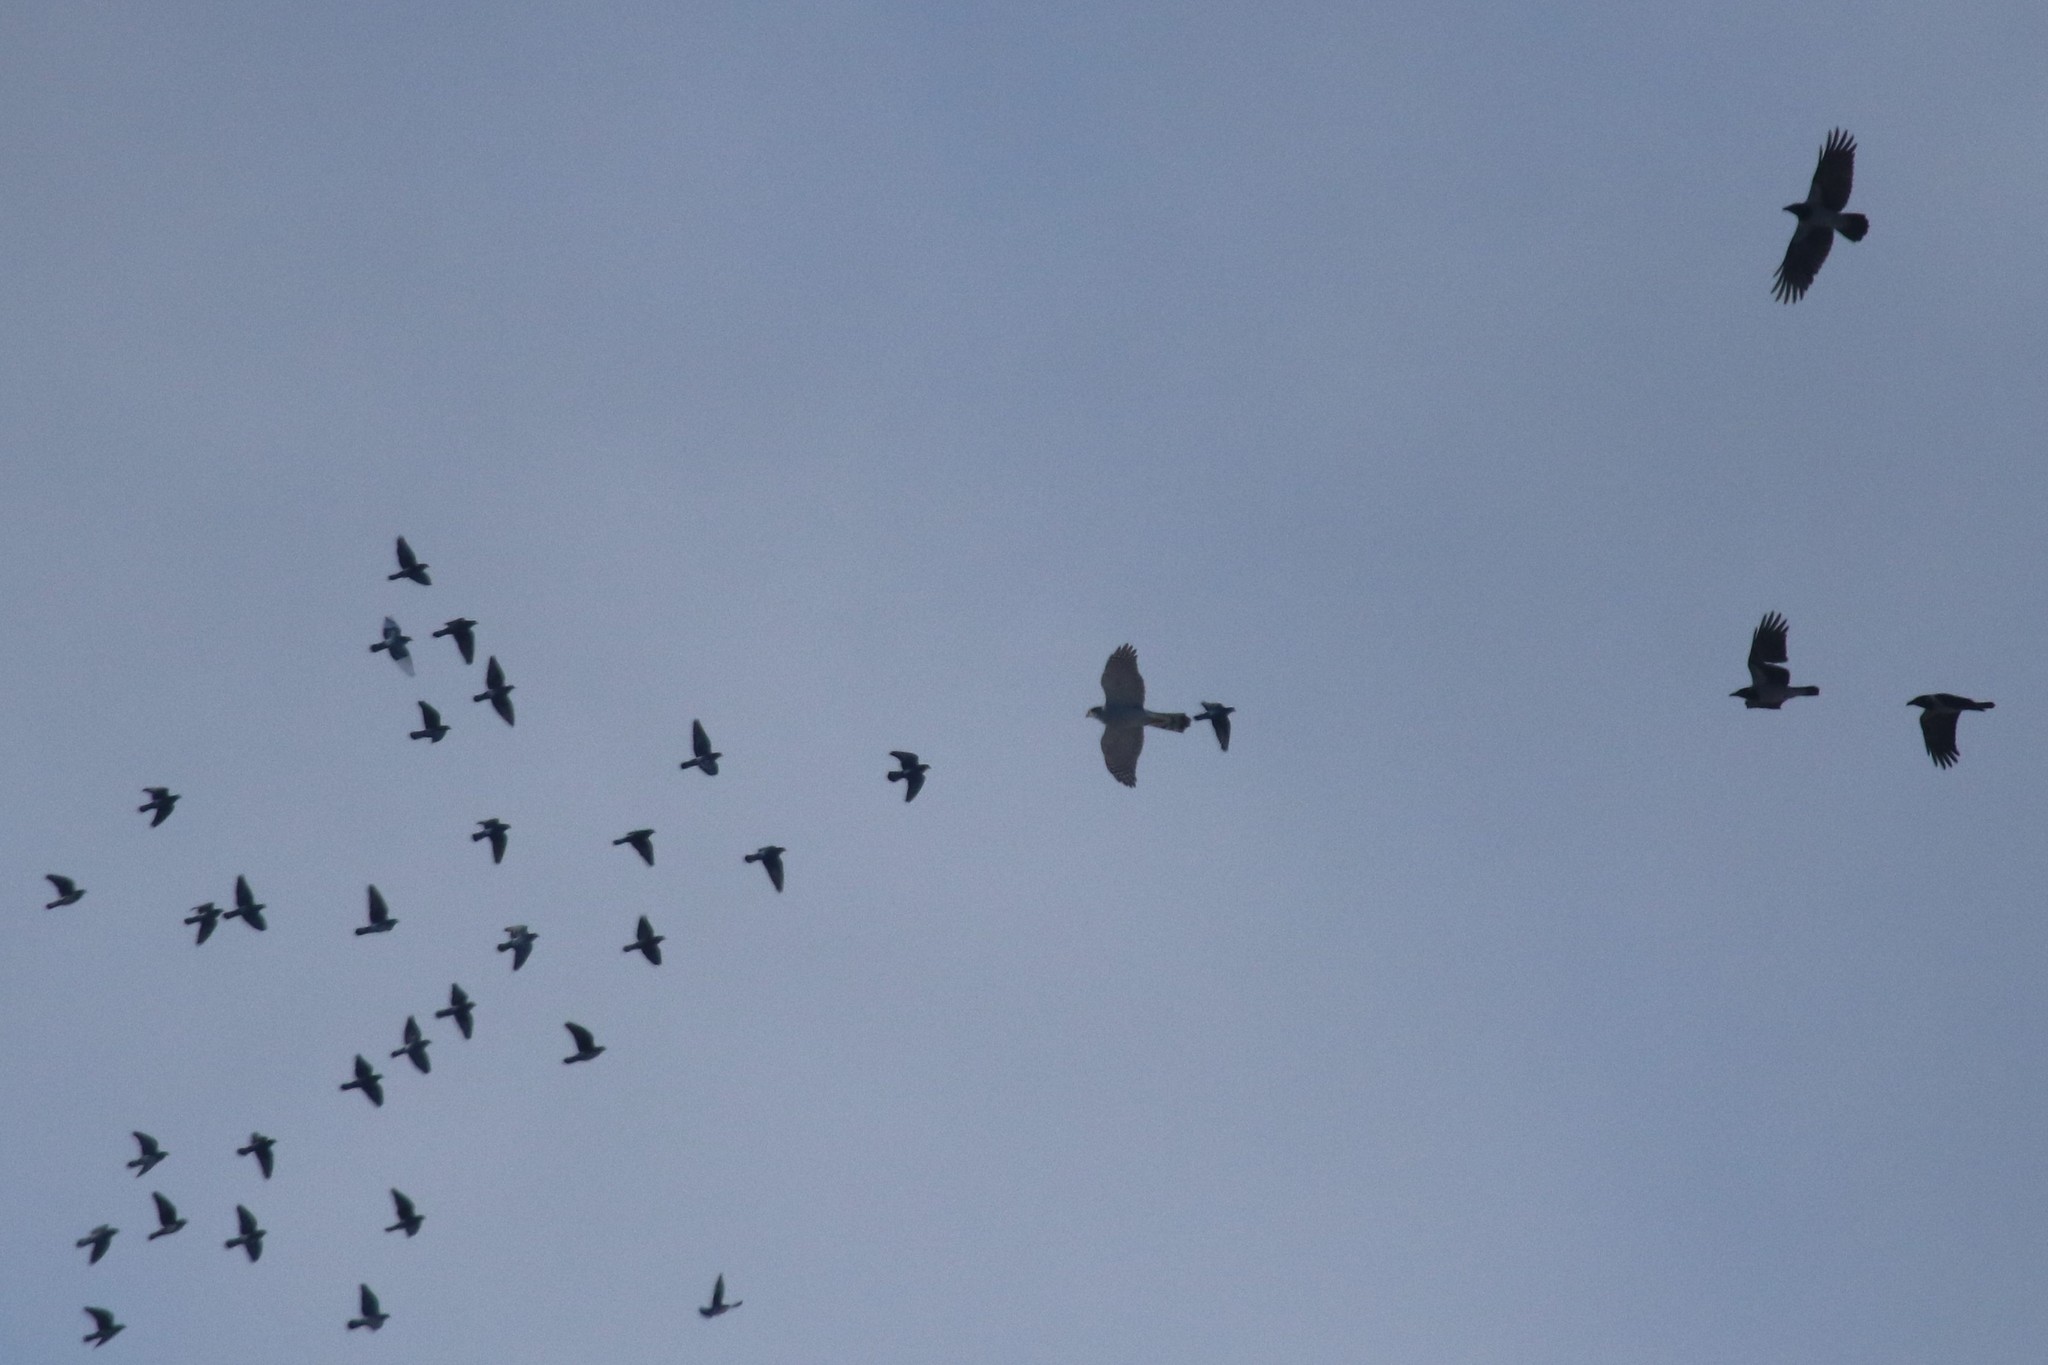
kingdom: Animalia
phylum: Chordata
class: Aves
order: Columbiformes
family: Columbidae
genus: Columba
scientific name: Columba livia
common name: Rock pigeon
